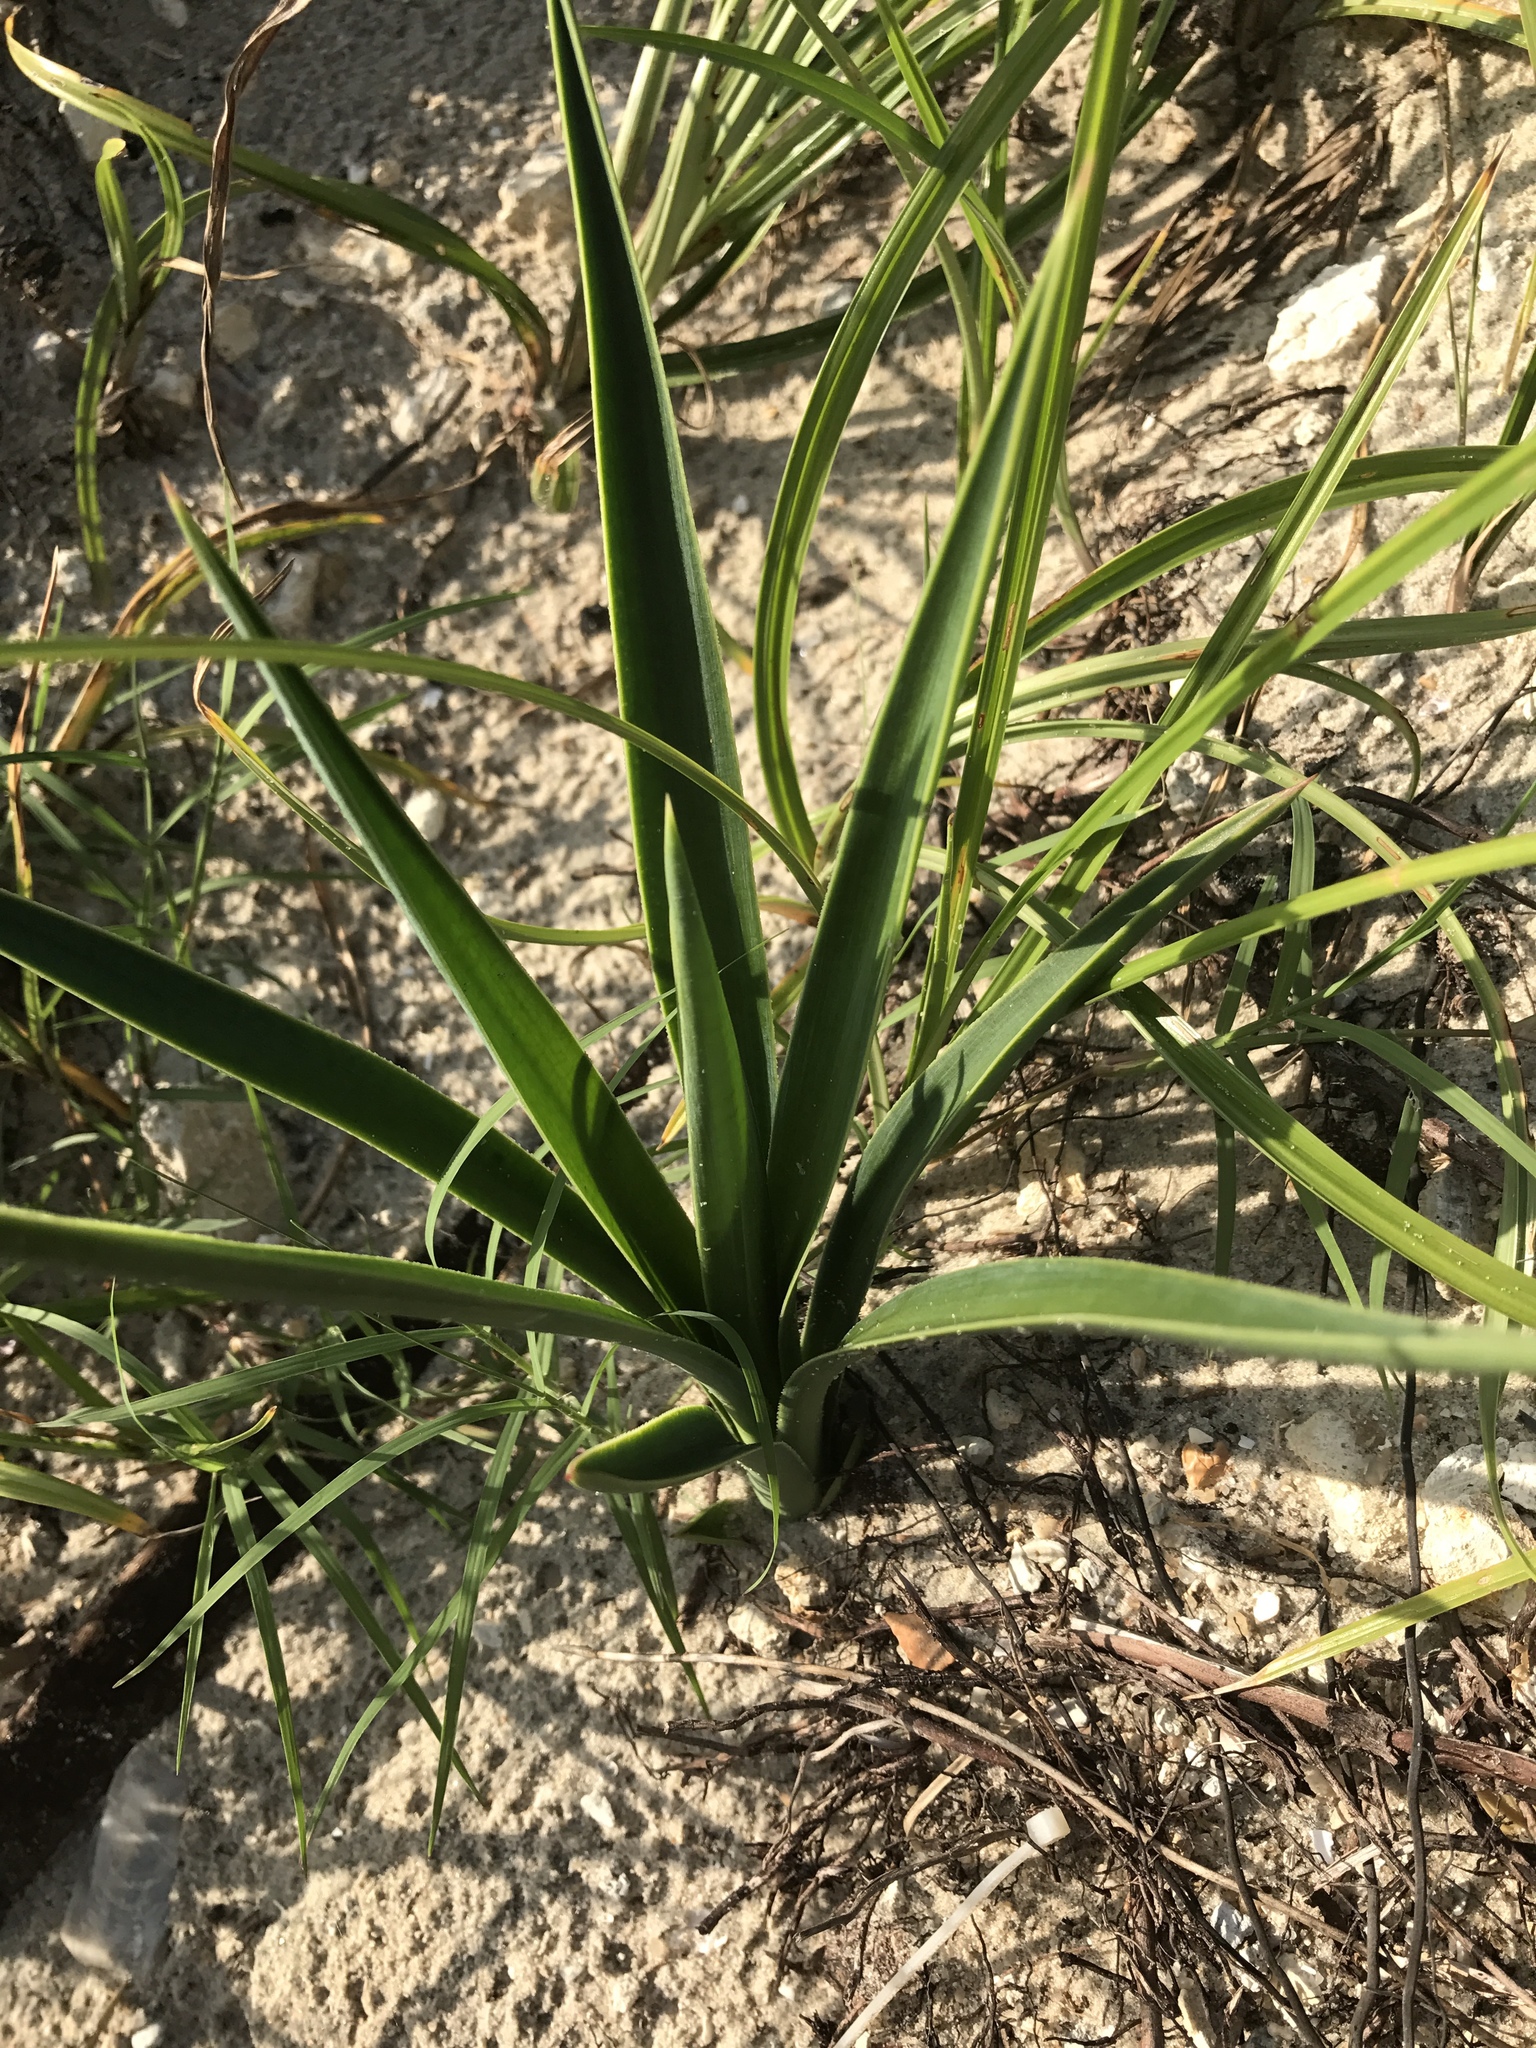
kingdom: Plantae
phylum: Tracheophyta
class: Liliopsida
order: Asparagales
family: Asparagaceae
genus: Yucca
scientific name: Yucca aloifolia
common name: Aloe yucca
